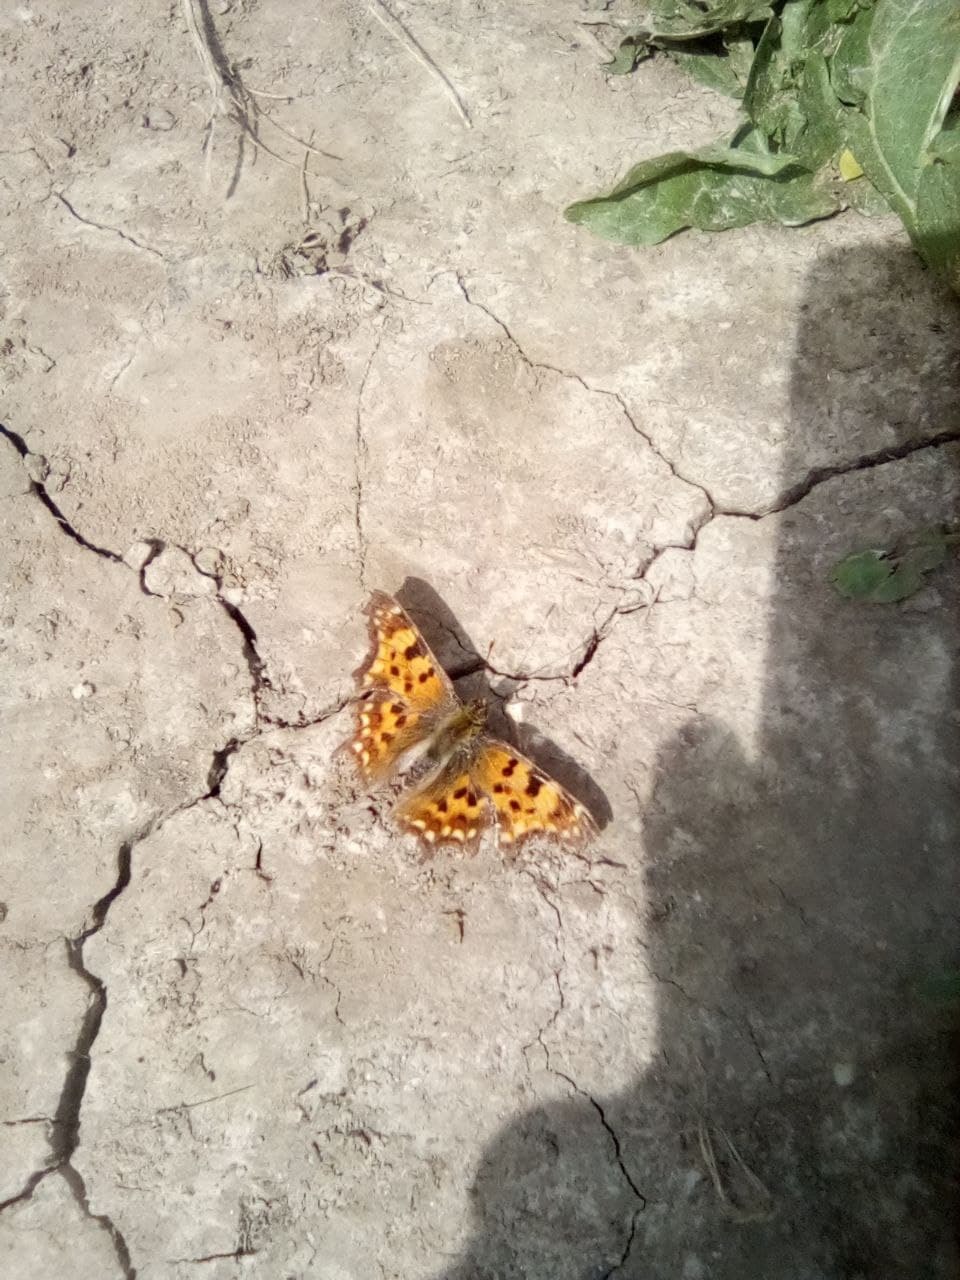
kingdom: Animalia
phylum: Arthropoda
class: Insecta
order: Lepidoptera
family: Nymphalidae
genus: Polygonia
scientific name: Polygonia c-album
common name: Comma
